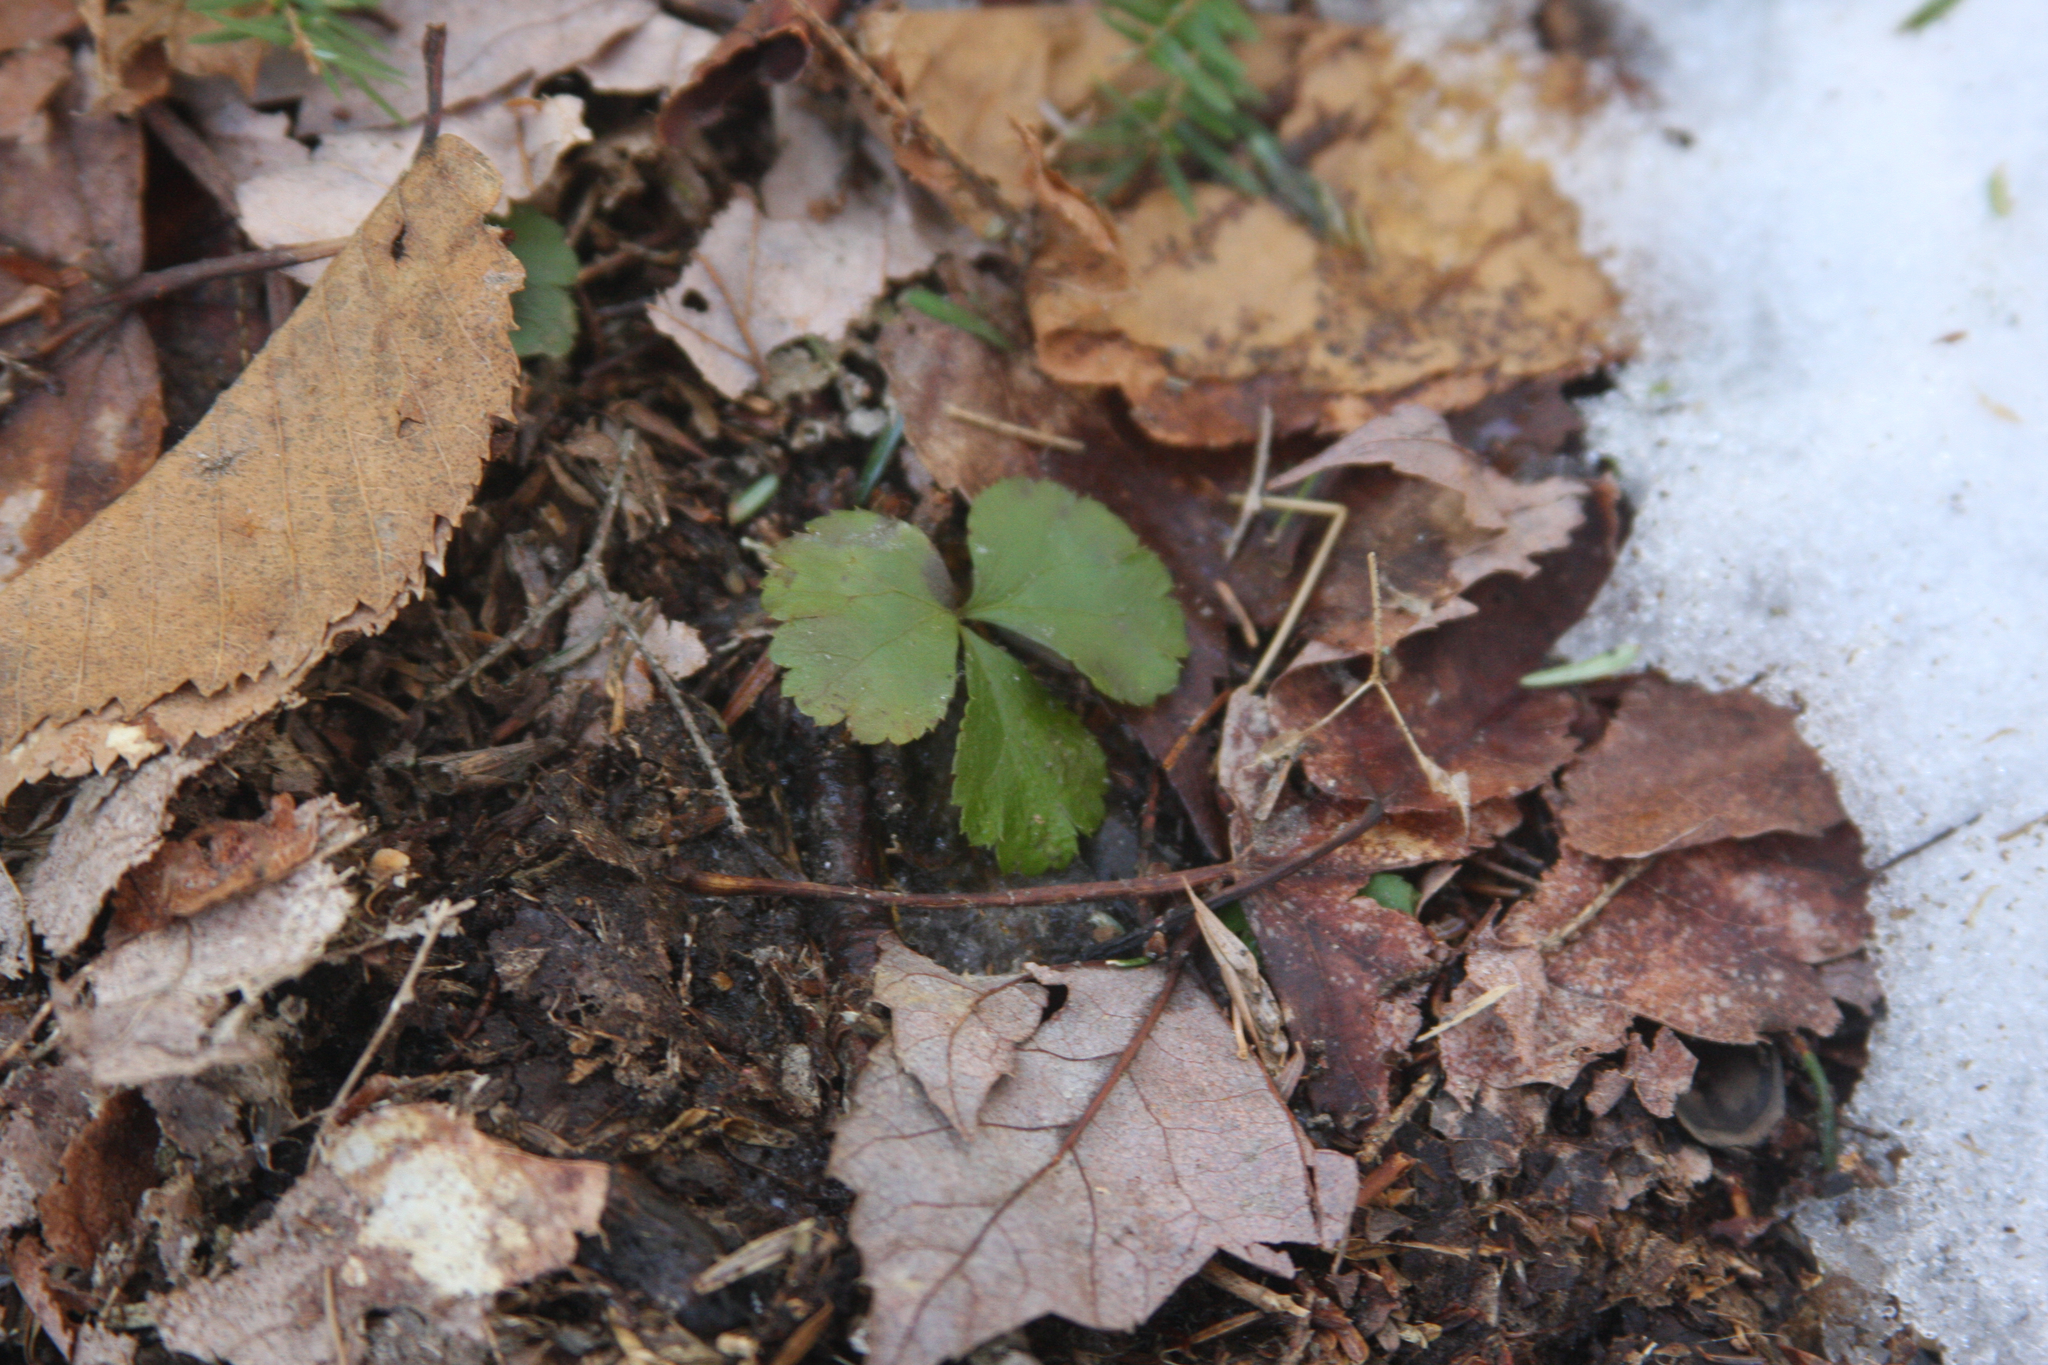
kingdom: Plantae
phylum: Tracheophyta
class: Magnoliopsida
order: Ranunculales
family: Ranunculaceae
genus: Coptis
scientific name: Coptis trifolia
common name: Canker-root
